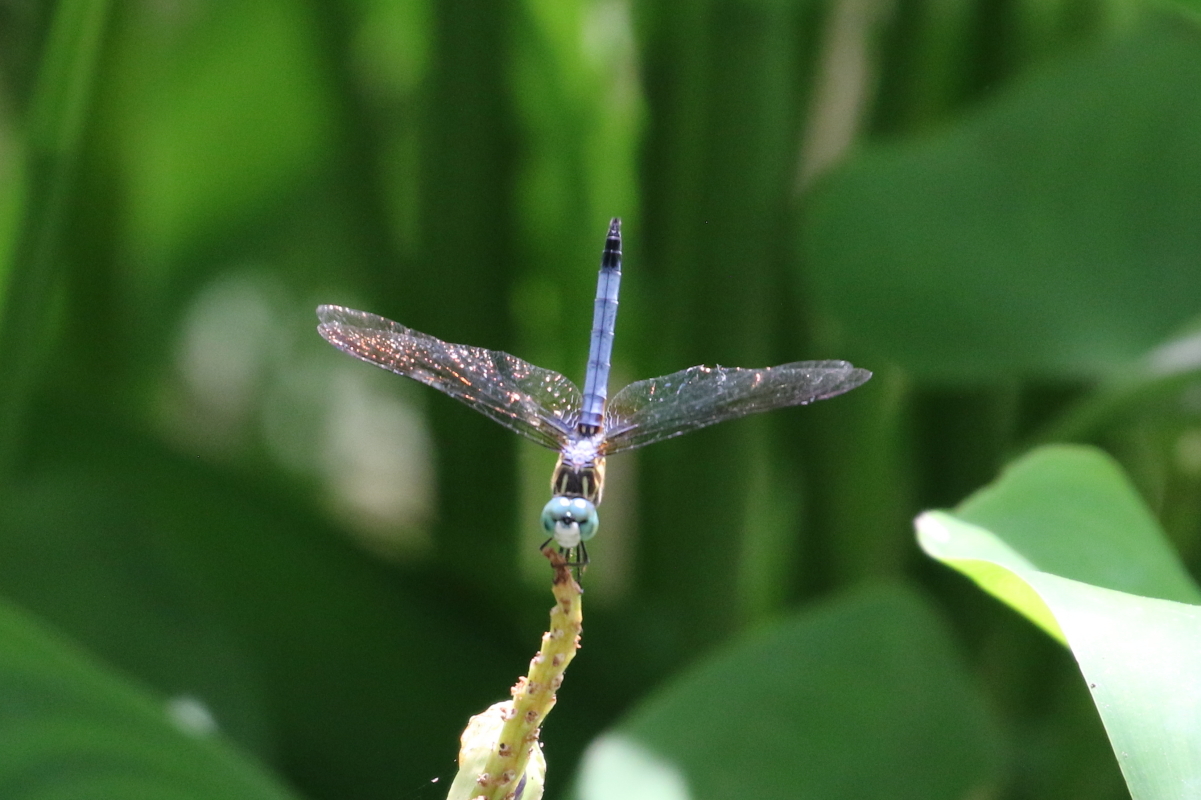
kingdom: Animalia
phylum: Arthropoda
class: Insecta
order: Odonata
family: Libellulidae
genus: Pachydiplax
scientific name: Pachydiplax longipennis
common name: Blue dasher
